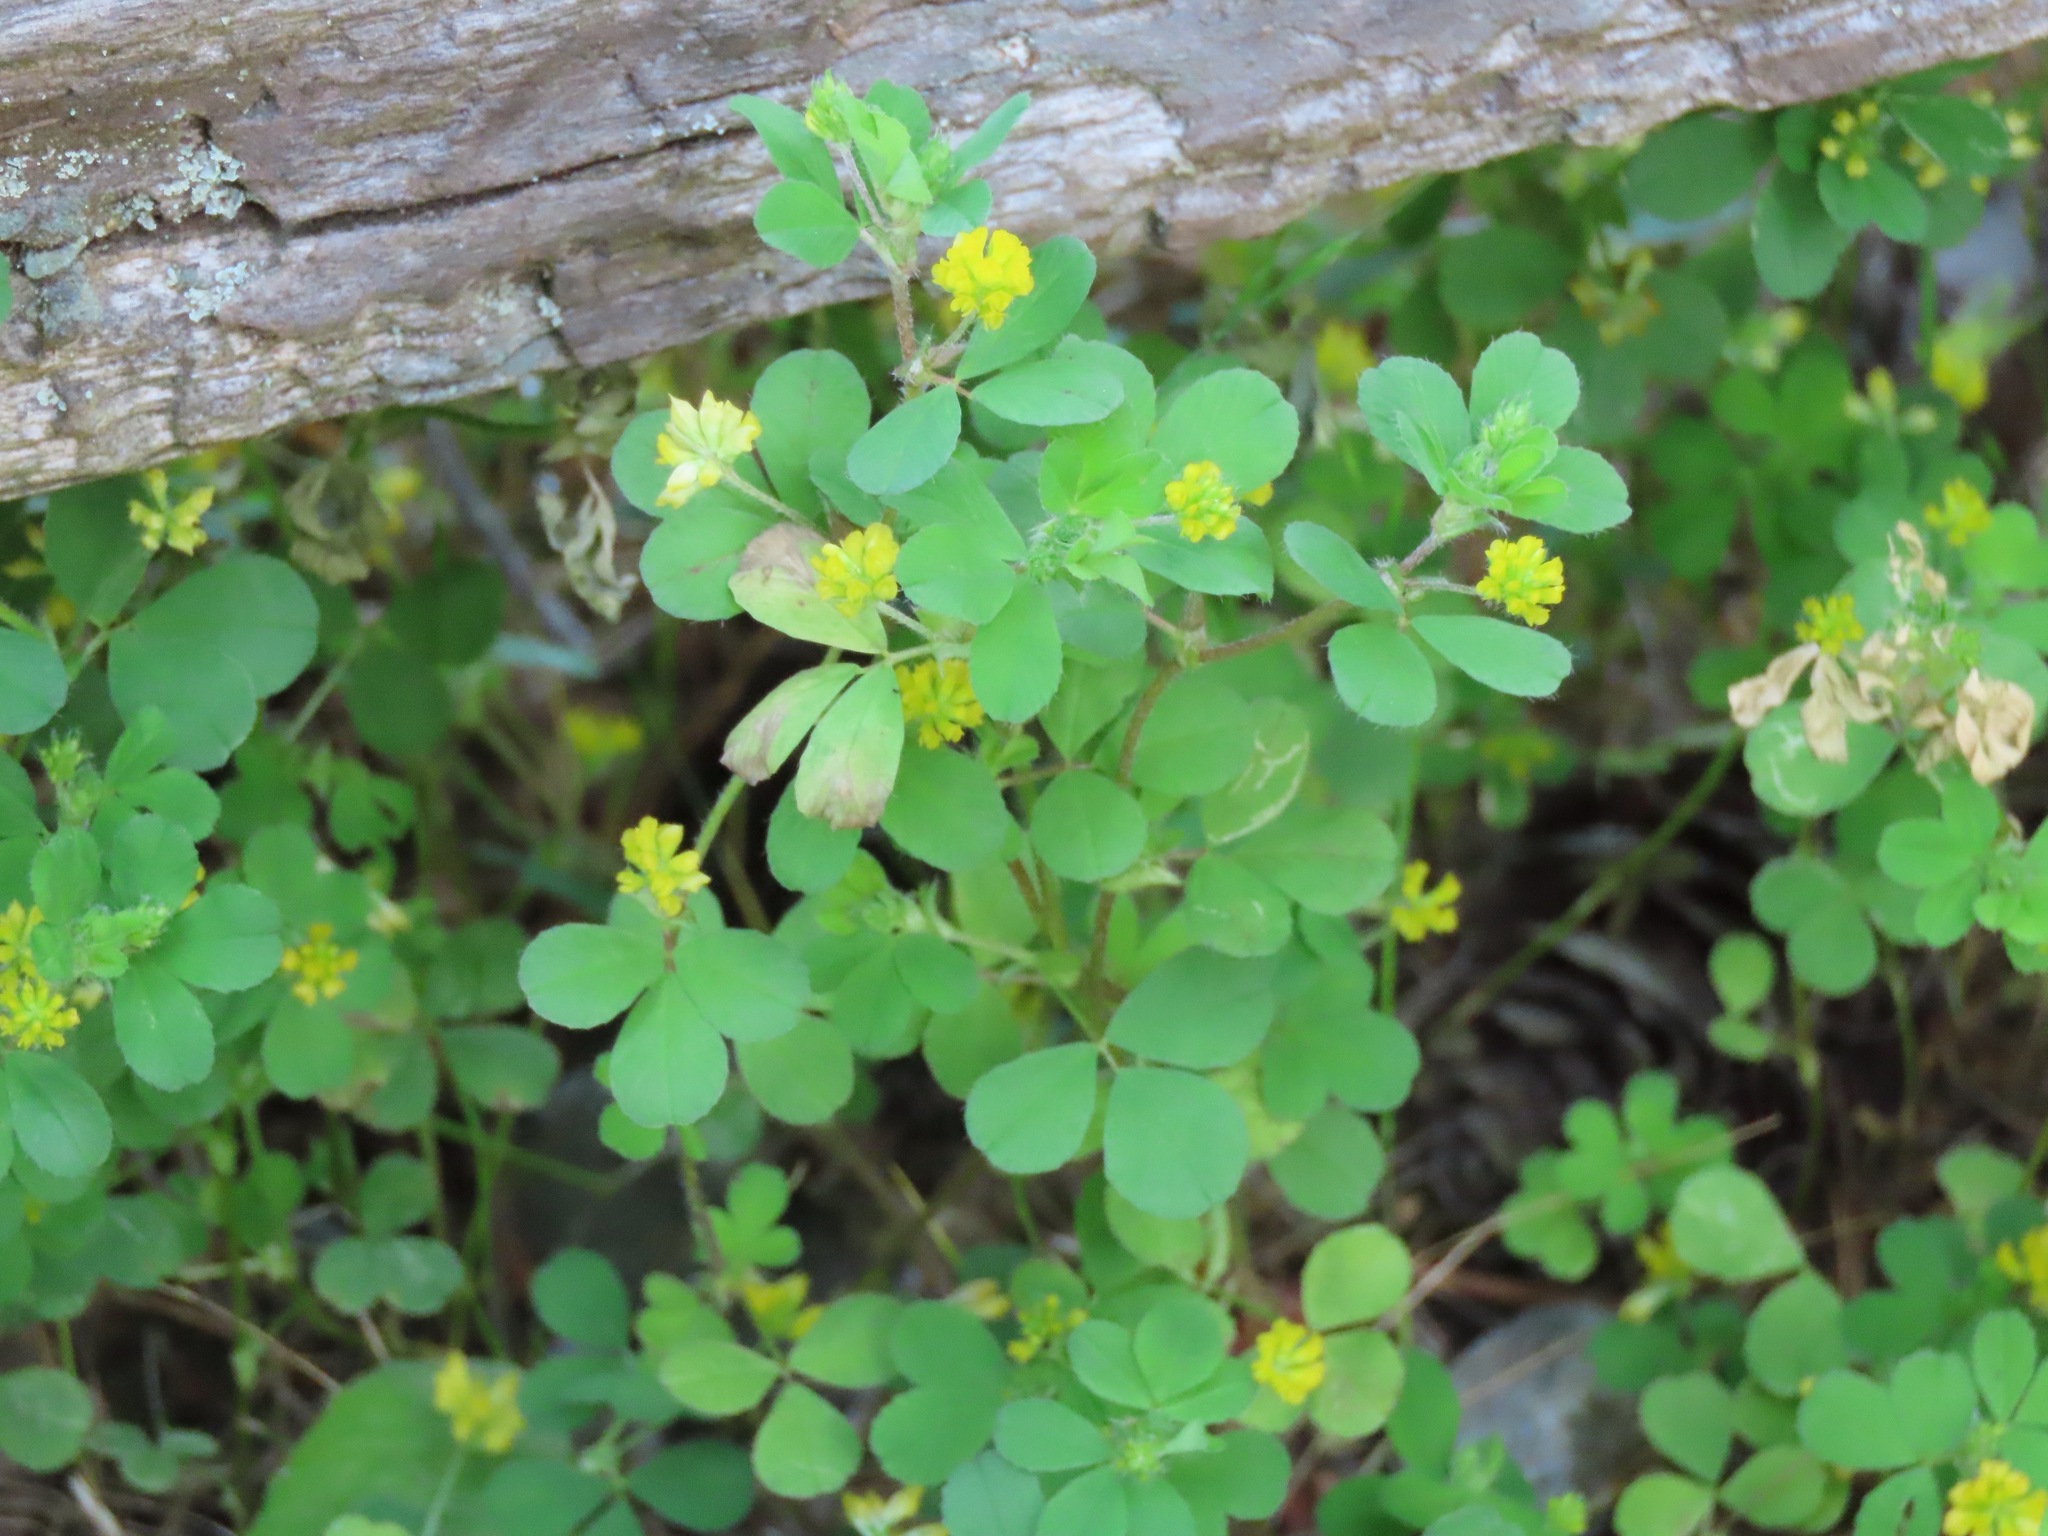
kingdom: Plantae
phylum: Tracheophyta
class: Magnoliopsida
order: Fabales
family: Fabaceae
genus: Trifolium
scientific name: Trifolium dubium
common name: Suckling clover
